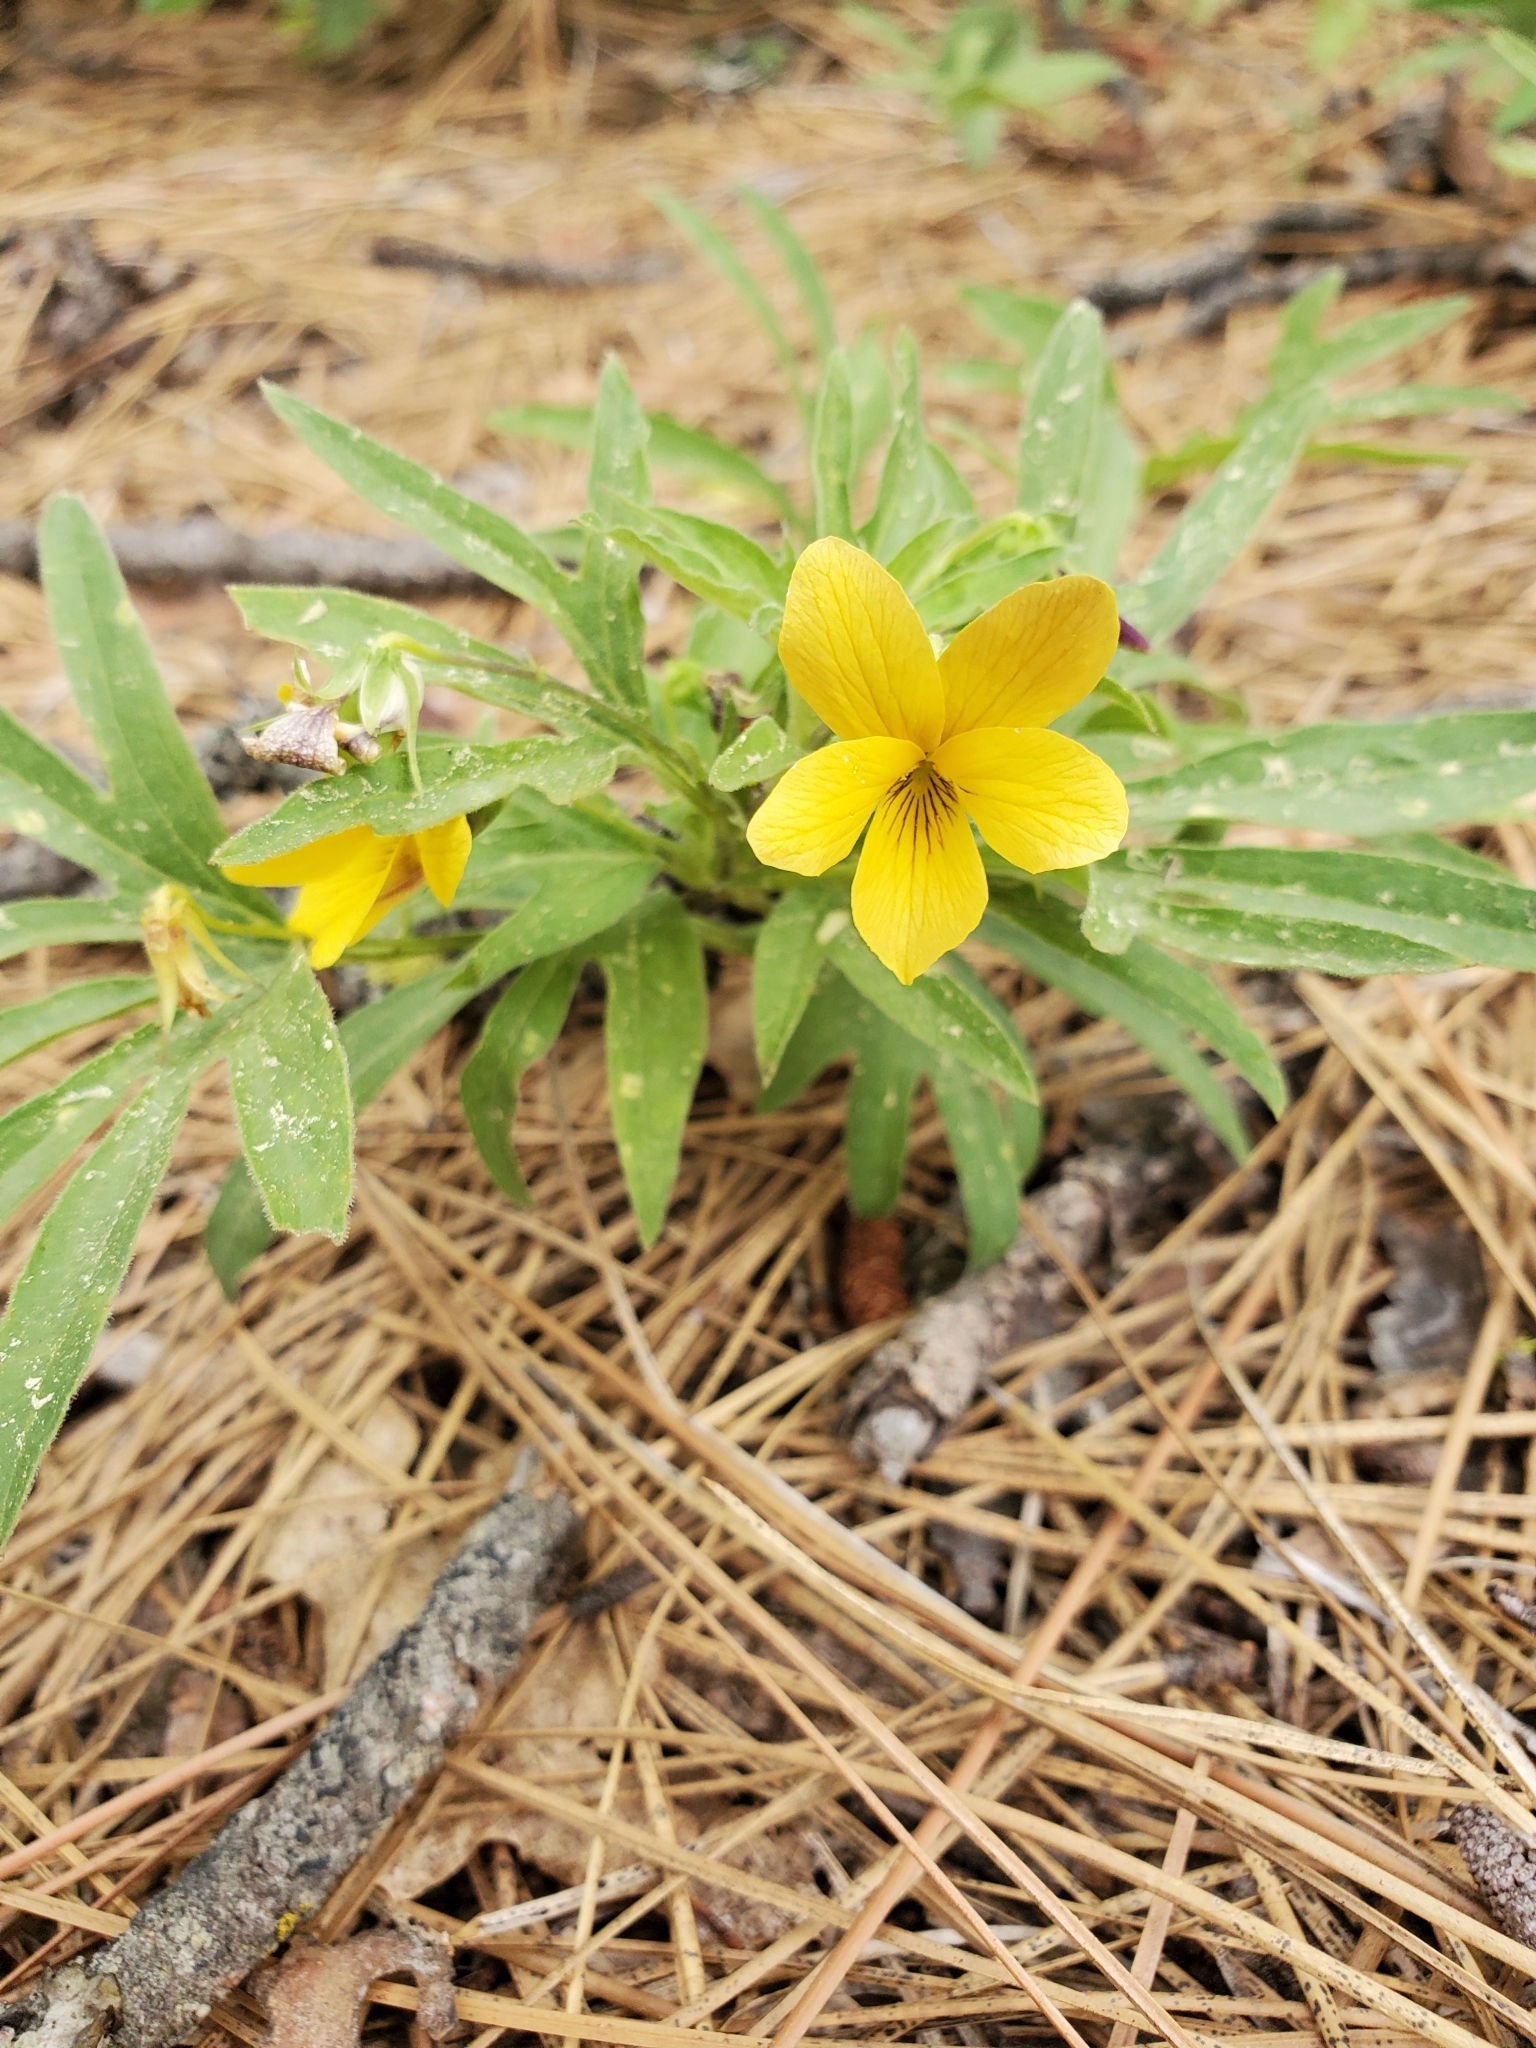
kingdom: Plantae
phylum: Tracheophyta
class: Magnoliopsida
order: Malpighiales
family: Violaceae
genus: Viola
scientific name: Viola lobata
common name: Pine violet
